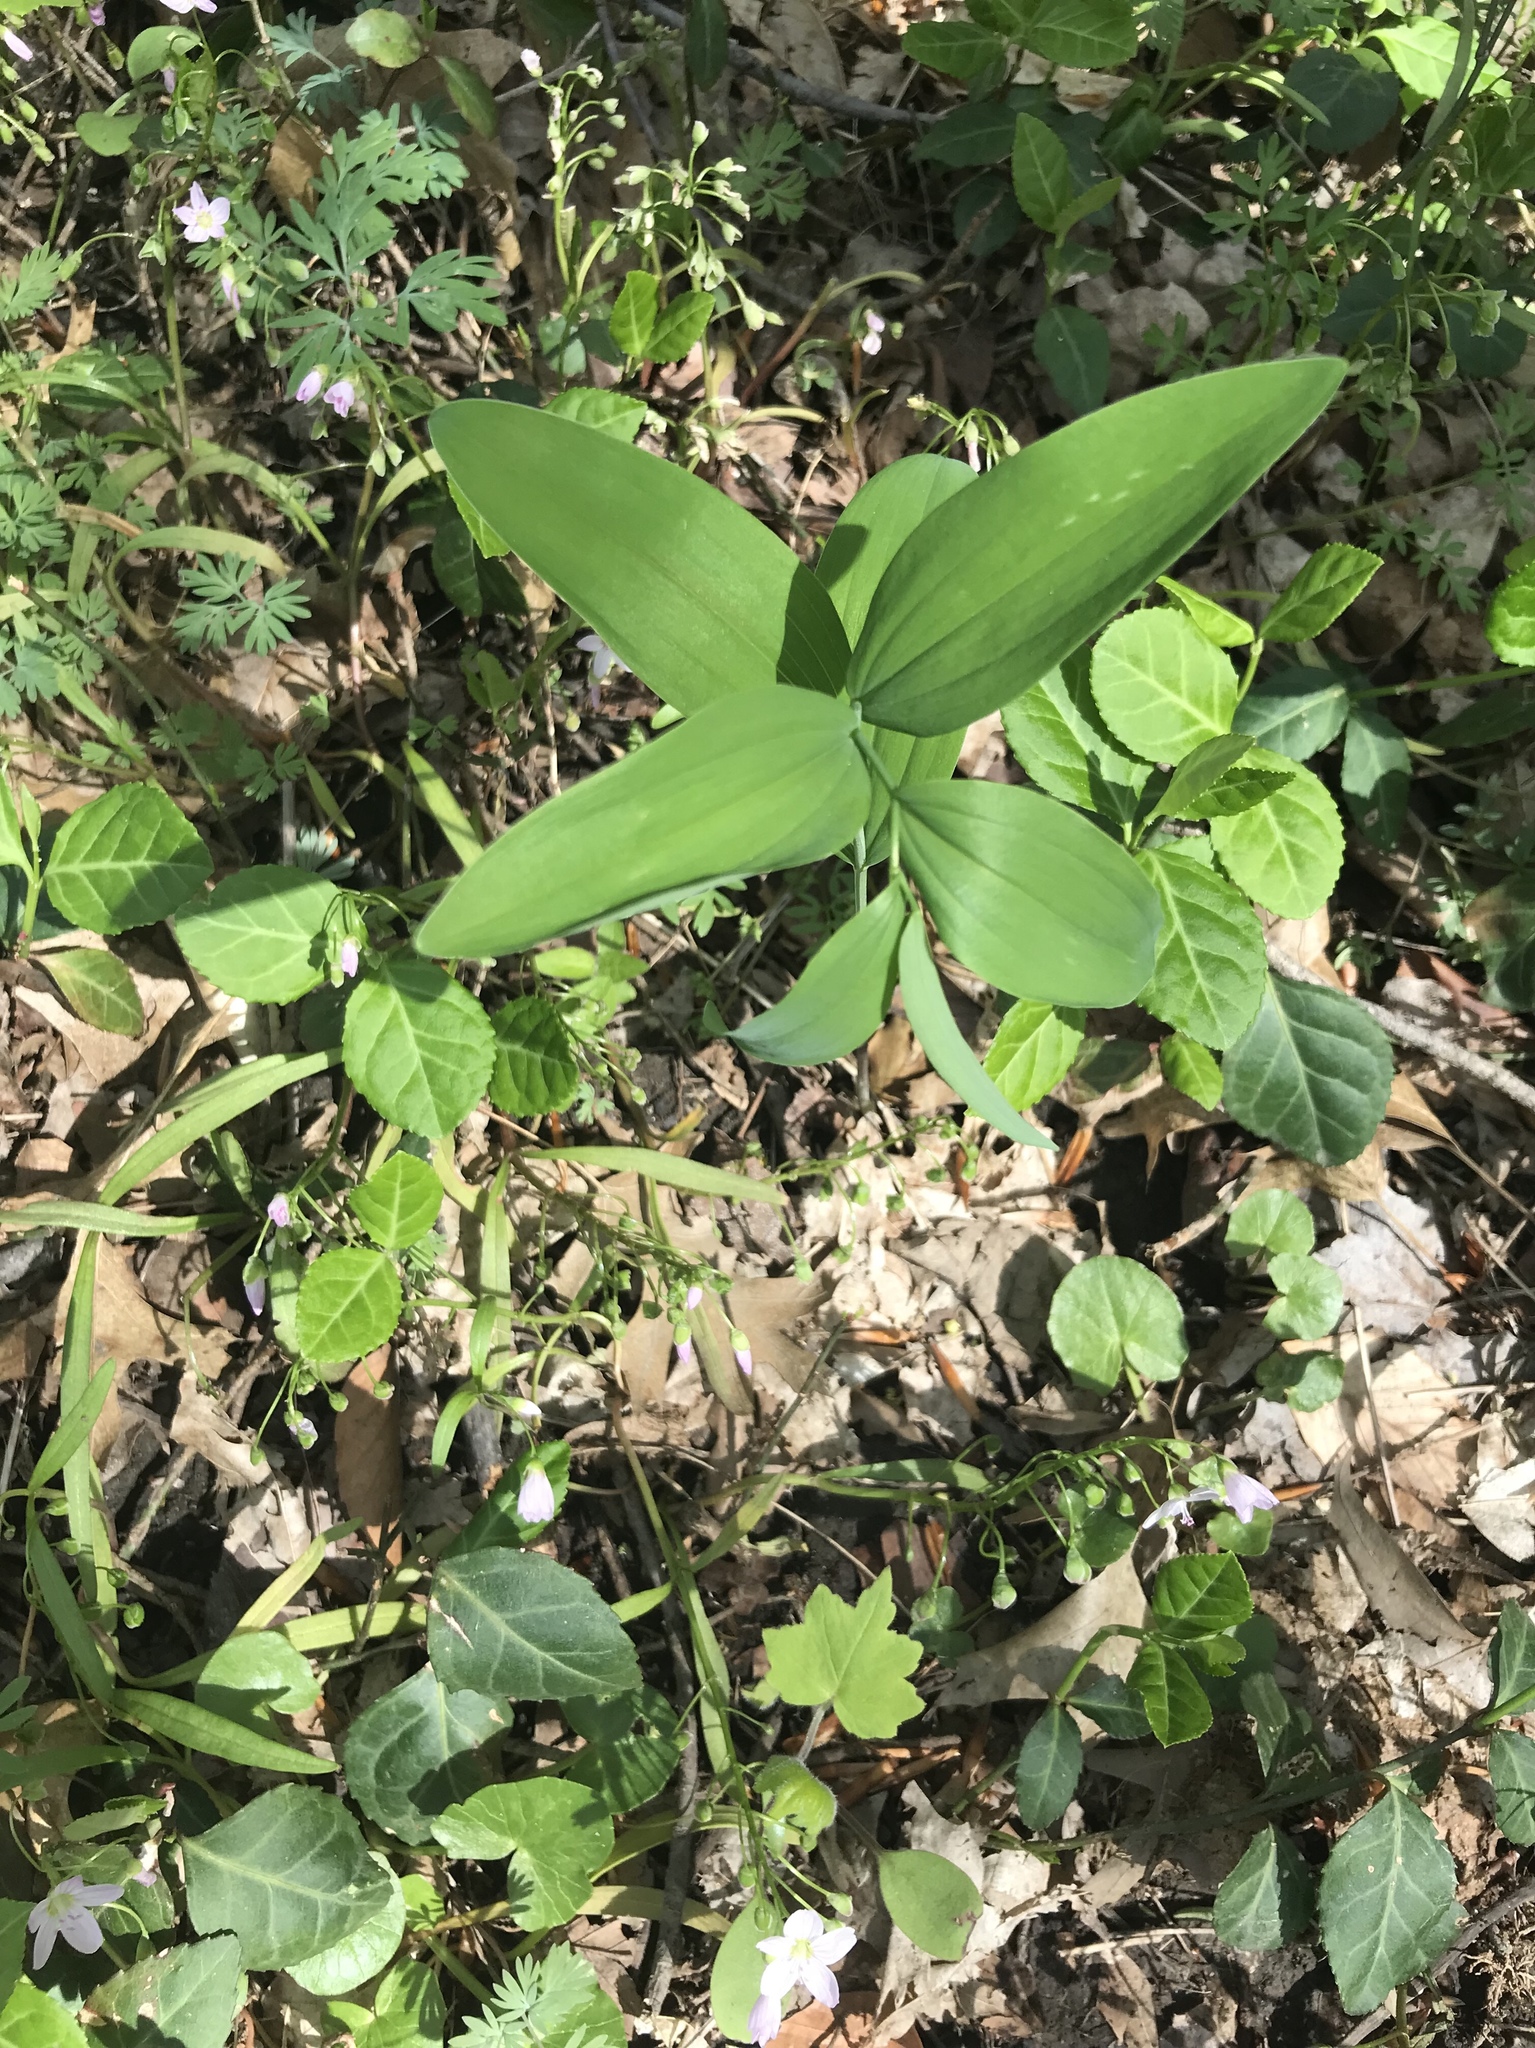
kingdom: Plantae
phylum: Tracheophyta
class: Liliopsida
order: Asparagales
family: Asparagaceae
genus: Polygonatum
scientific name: Polygonatum biflorum
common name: American solomon's-seal
